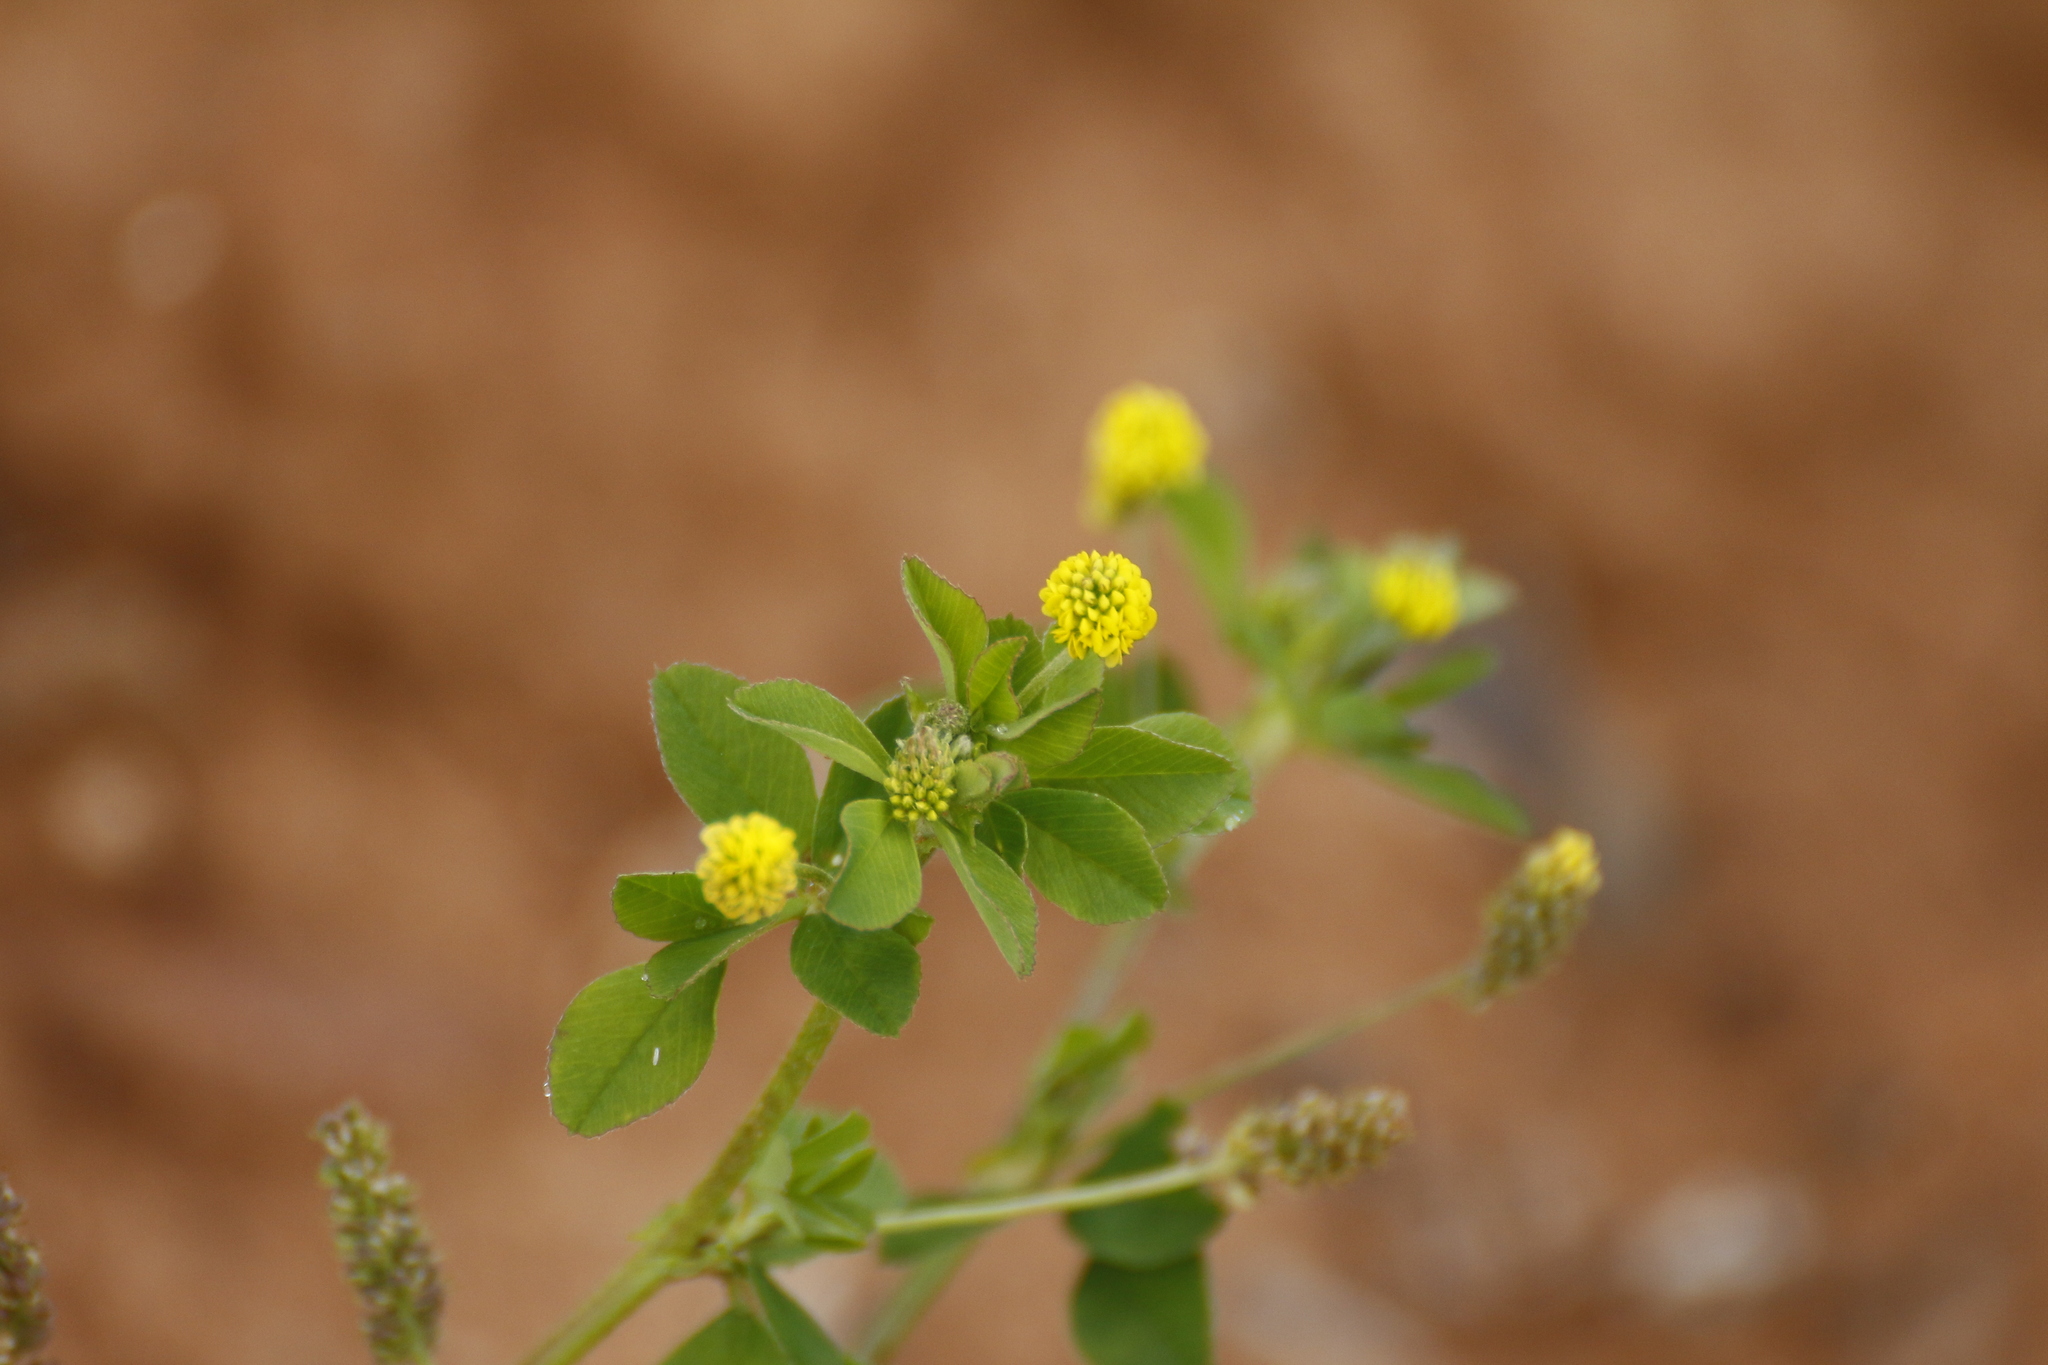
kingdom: Plantae
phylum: Tracheophyta
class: Magnoliopsida
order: Fabales
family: Fabaceae
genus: Medicago
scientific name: Medicago lupulina
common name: Black medick
